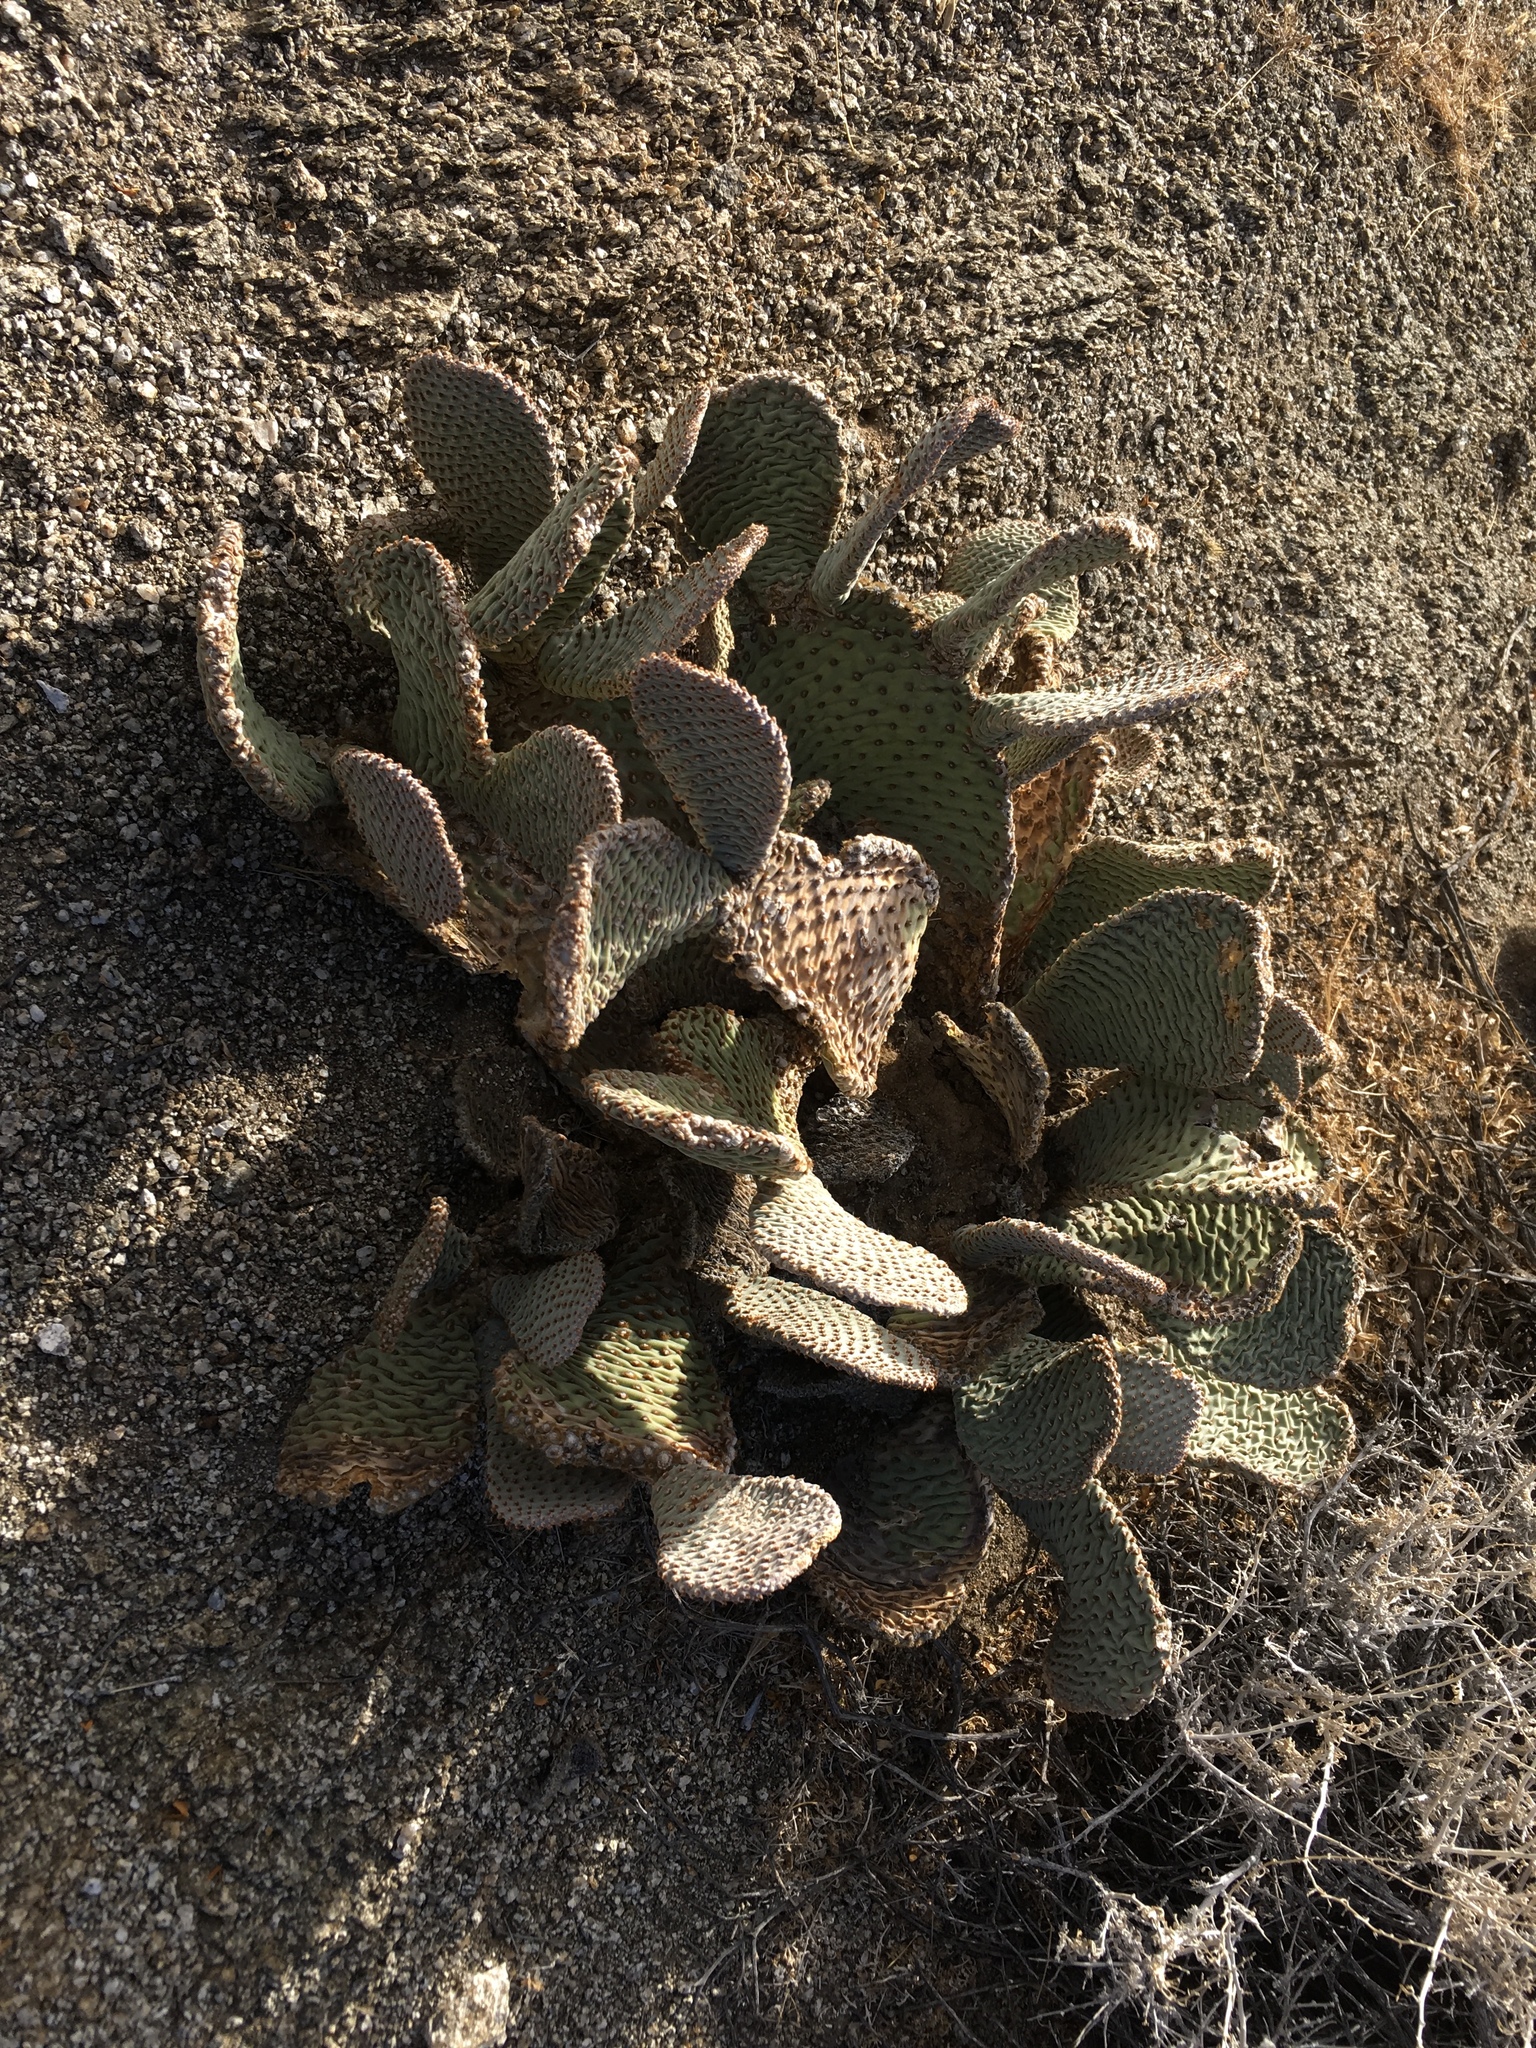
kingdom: Plantae
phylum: Tracheophyta
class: Magnoliopsida
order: Caryophyllales
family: Cactaceae
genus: Opuntia
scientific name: Opuntia basilaris
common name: Beavertail prickly-pear
